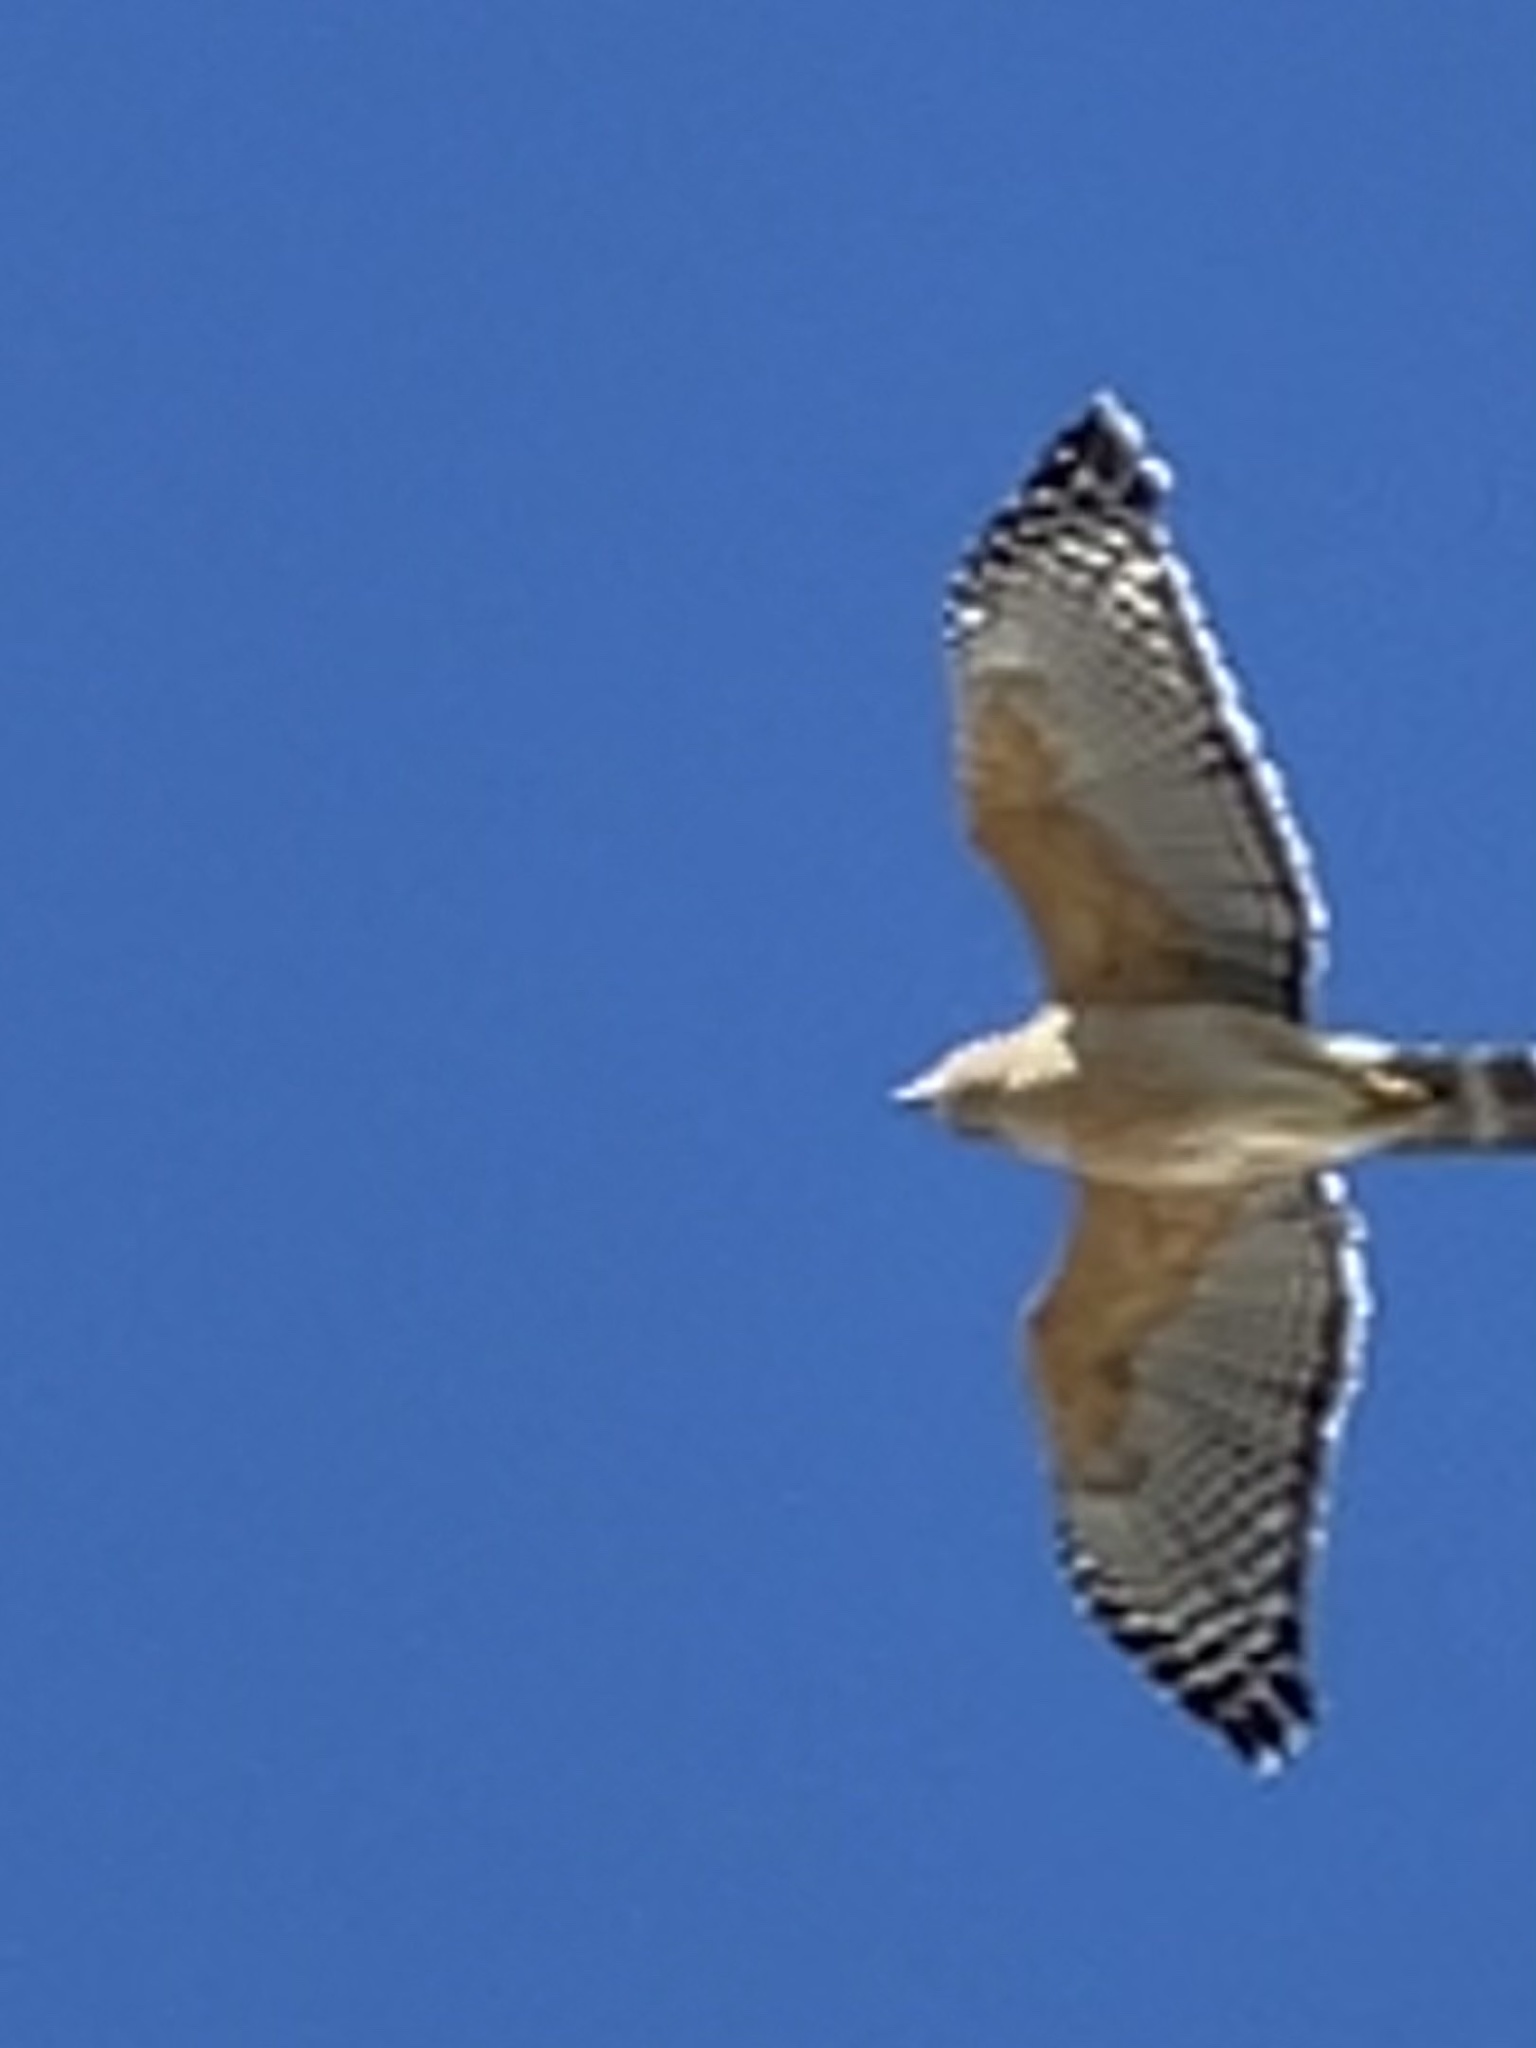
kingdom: Animalia
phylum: Chordata
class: Aves
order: Accipitriformes
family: Accipitridae
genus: Buteo
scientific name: Buteo lineatus
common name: Red-shouldered hawk
